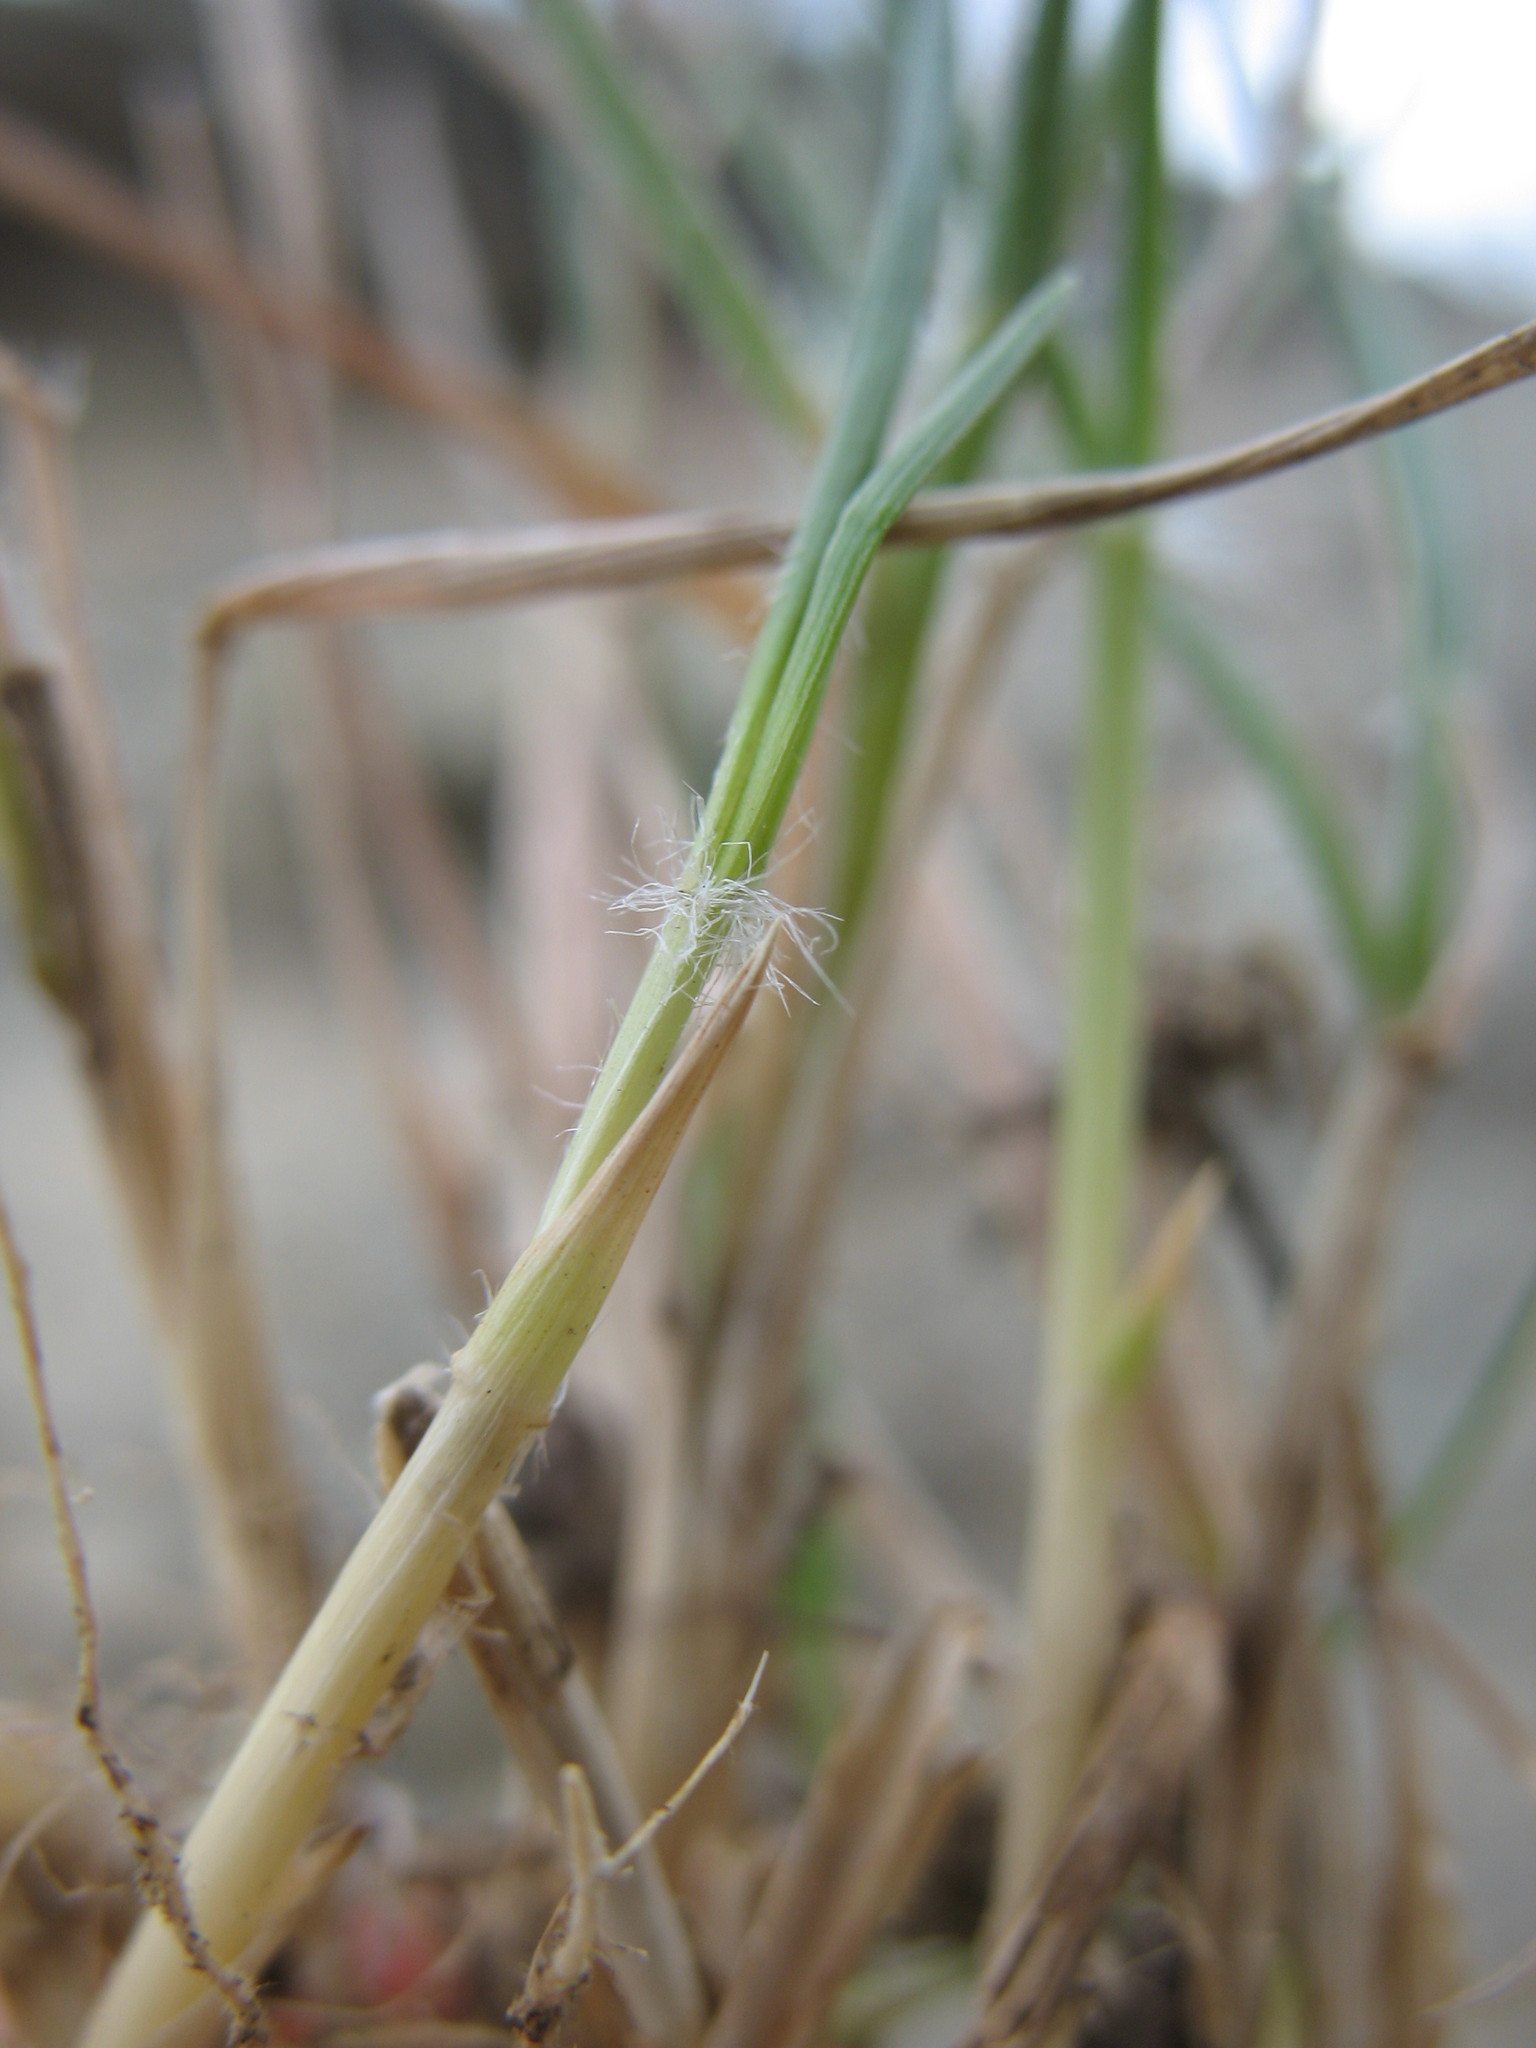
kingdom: Plantae
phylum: Tracheophyta
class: Liliopsida
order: Poales
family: Poaceae
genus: Rytidosperma
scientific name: Rytidosperma clavatum
